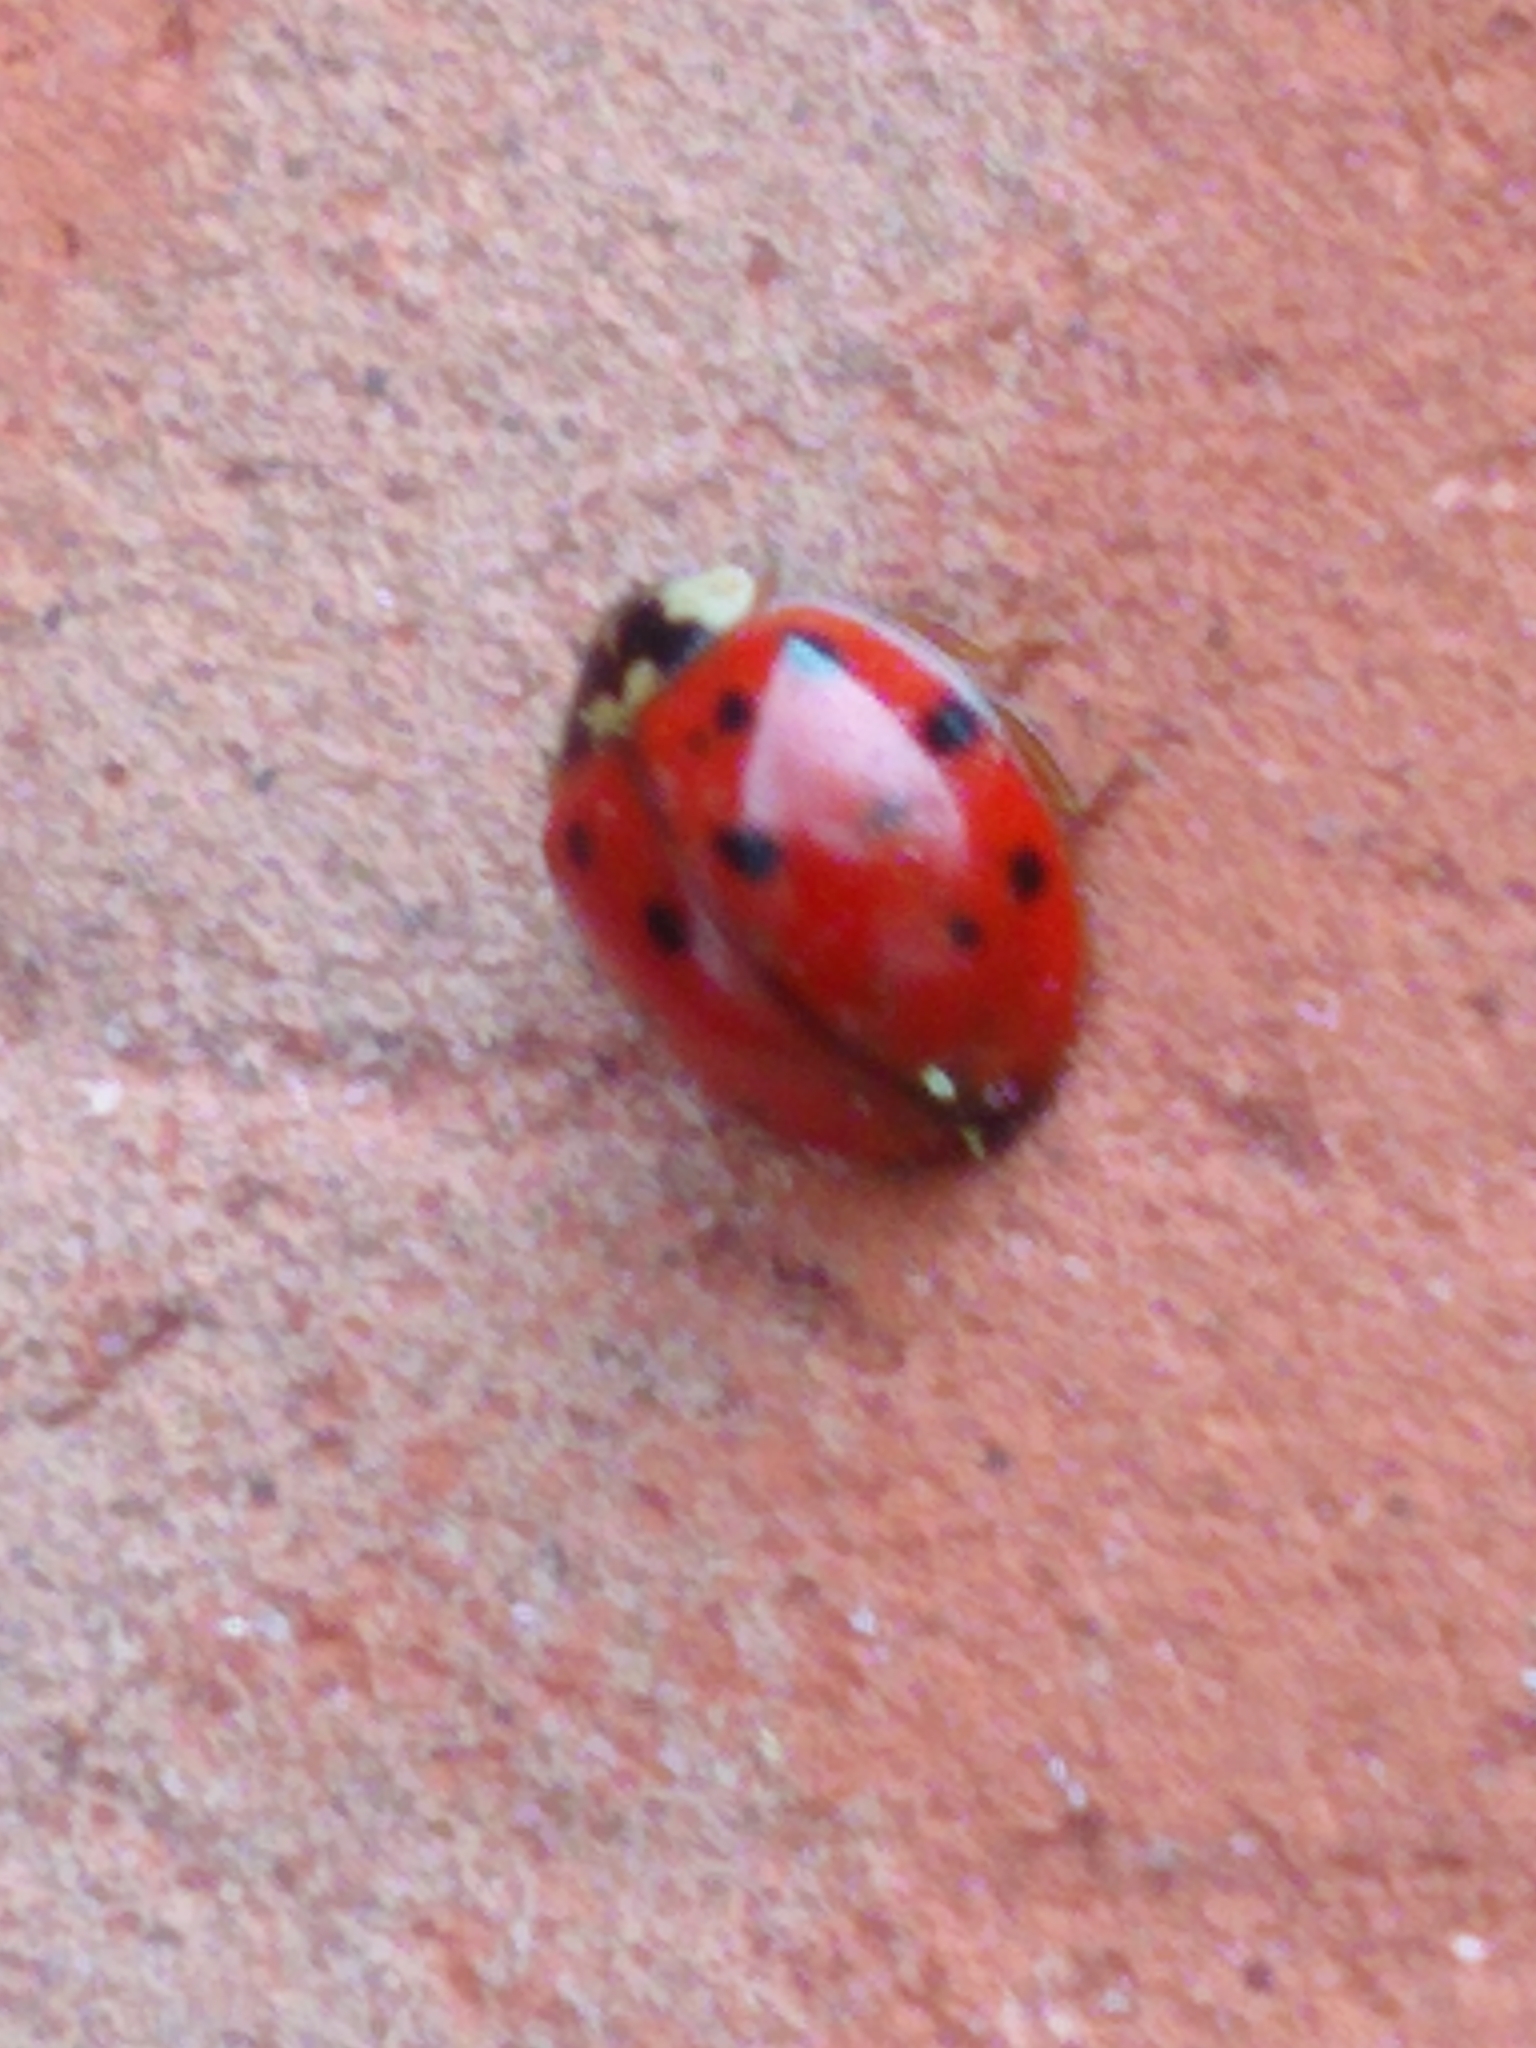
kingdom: Animalia
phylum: Arthropoda
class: Insecta
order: Coleoptera
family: Coccinellidae
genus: Harmonia
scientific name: Harmonia axyridis
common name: Harlequin ladybird
